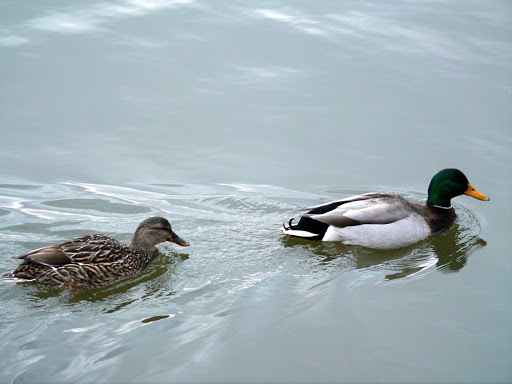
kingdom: Animalia
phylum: Chordata
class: Aves
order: Anseriformes
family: Anatidae
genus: Anas
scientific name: Anas platyrhynchos
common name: Mallard
